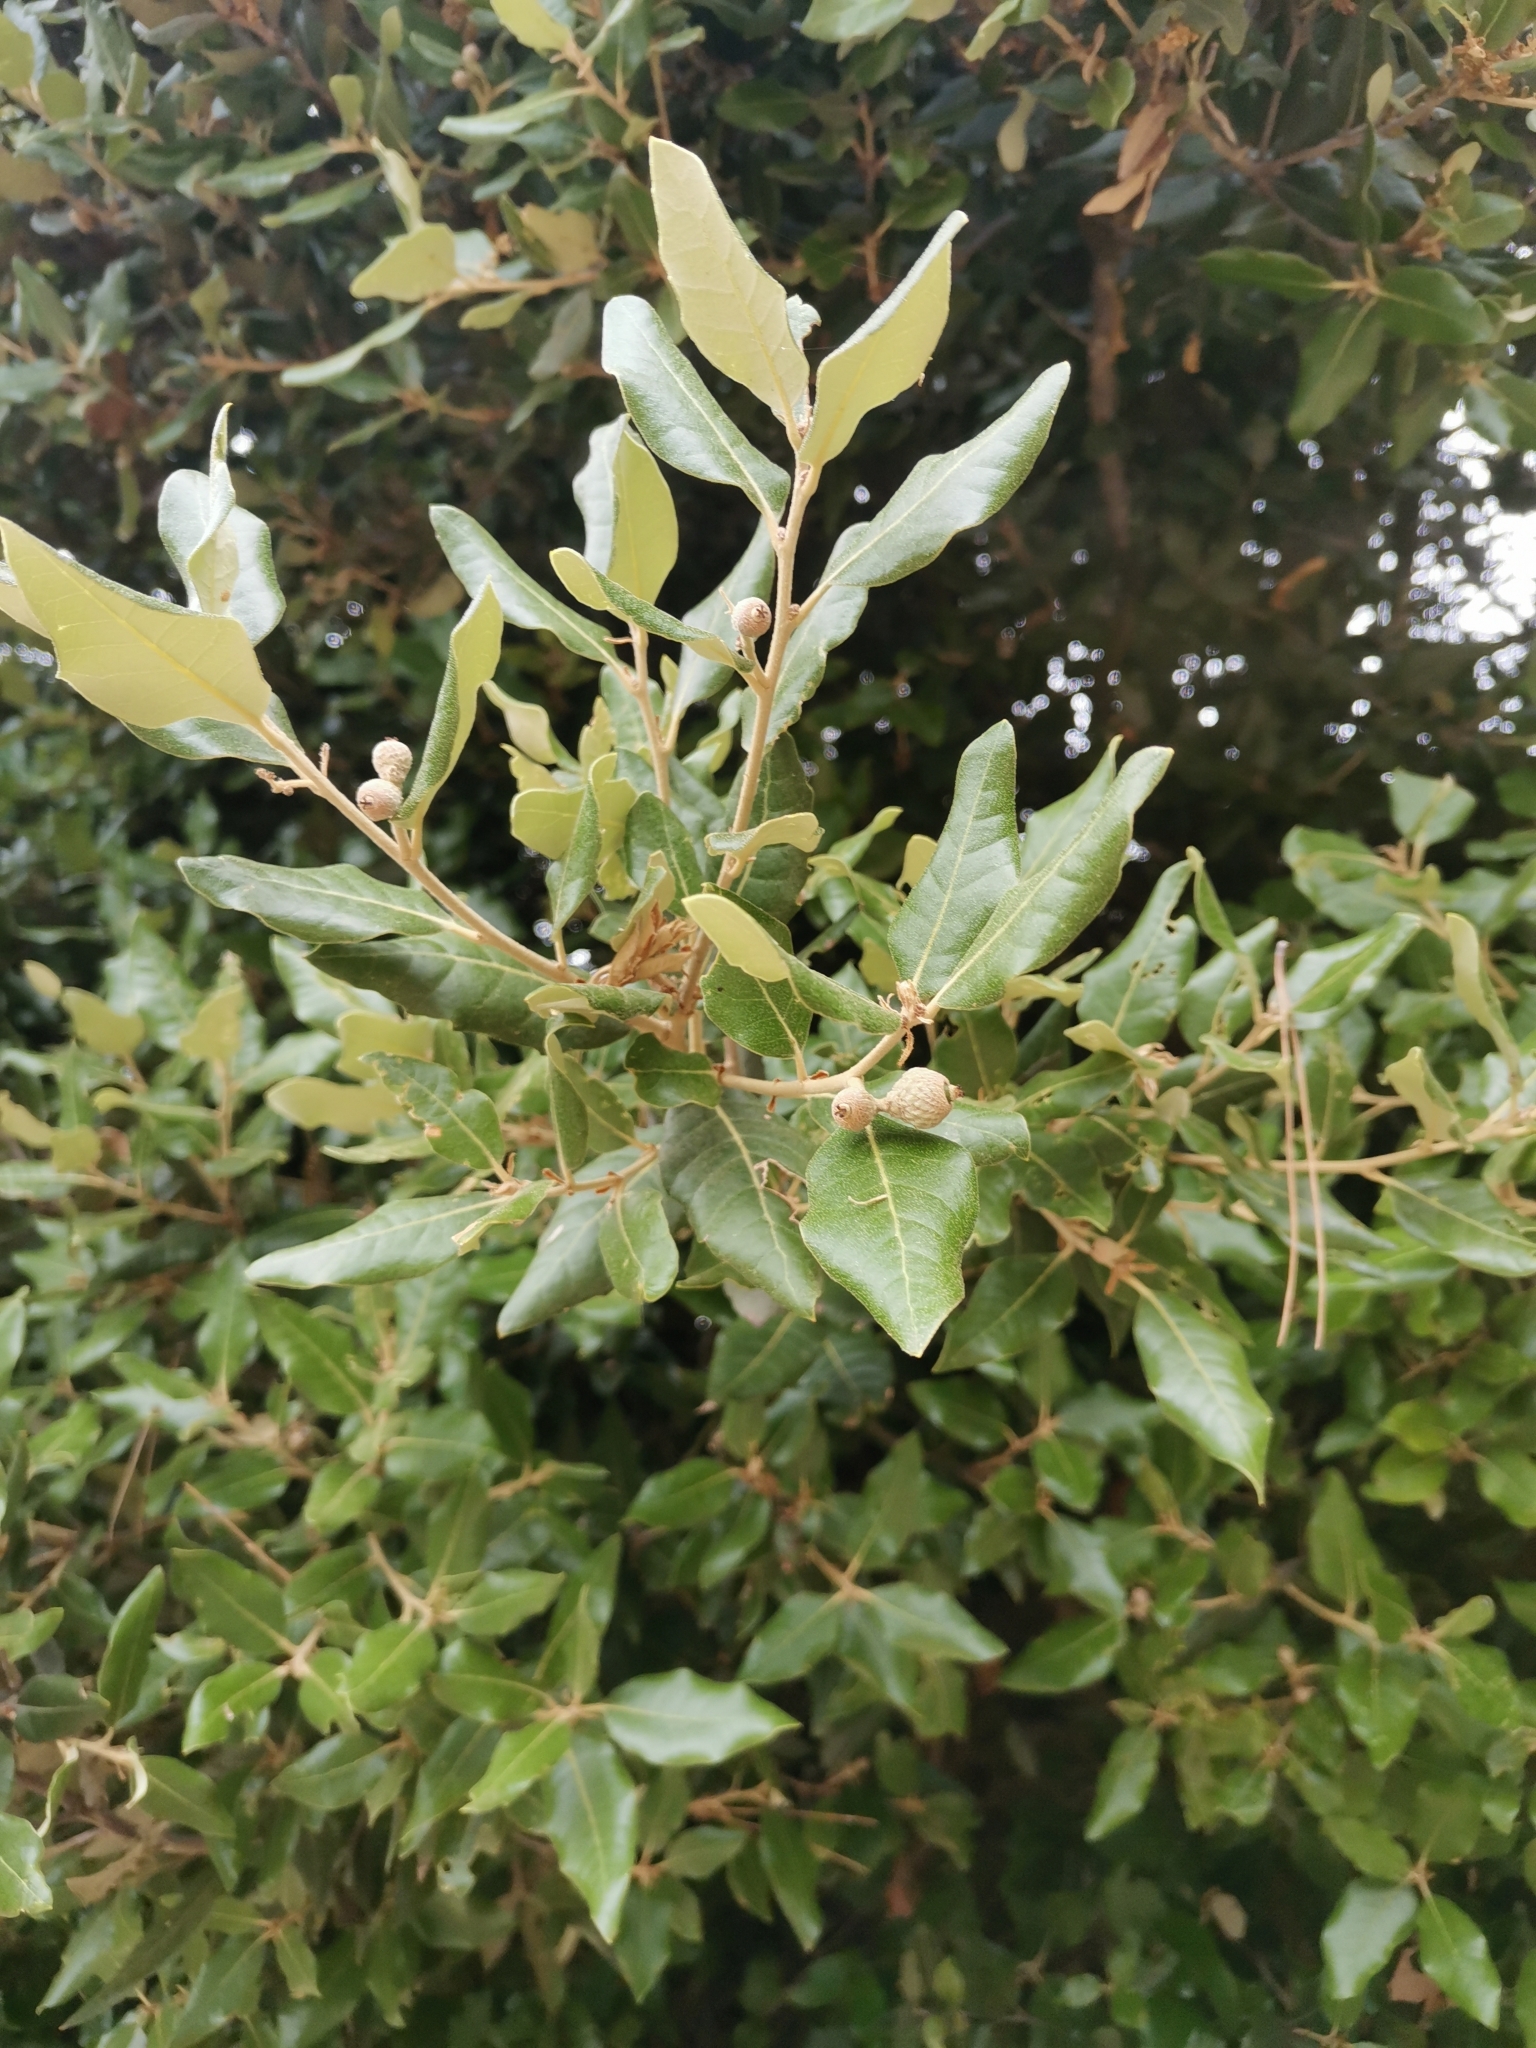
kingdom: Plantae
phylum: Tracheophyta
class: Magnoliopsida
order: Fagales
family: Fagaceae
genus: Quercus
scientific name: Quercus ilex
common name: Evergreen oak
